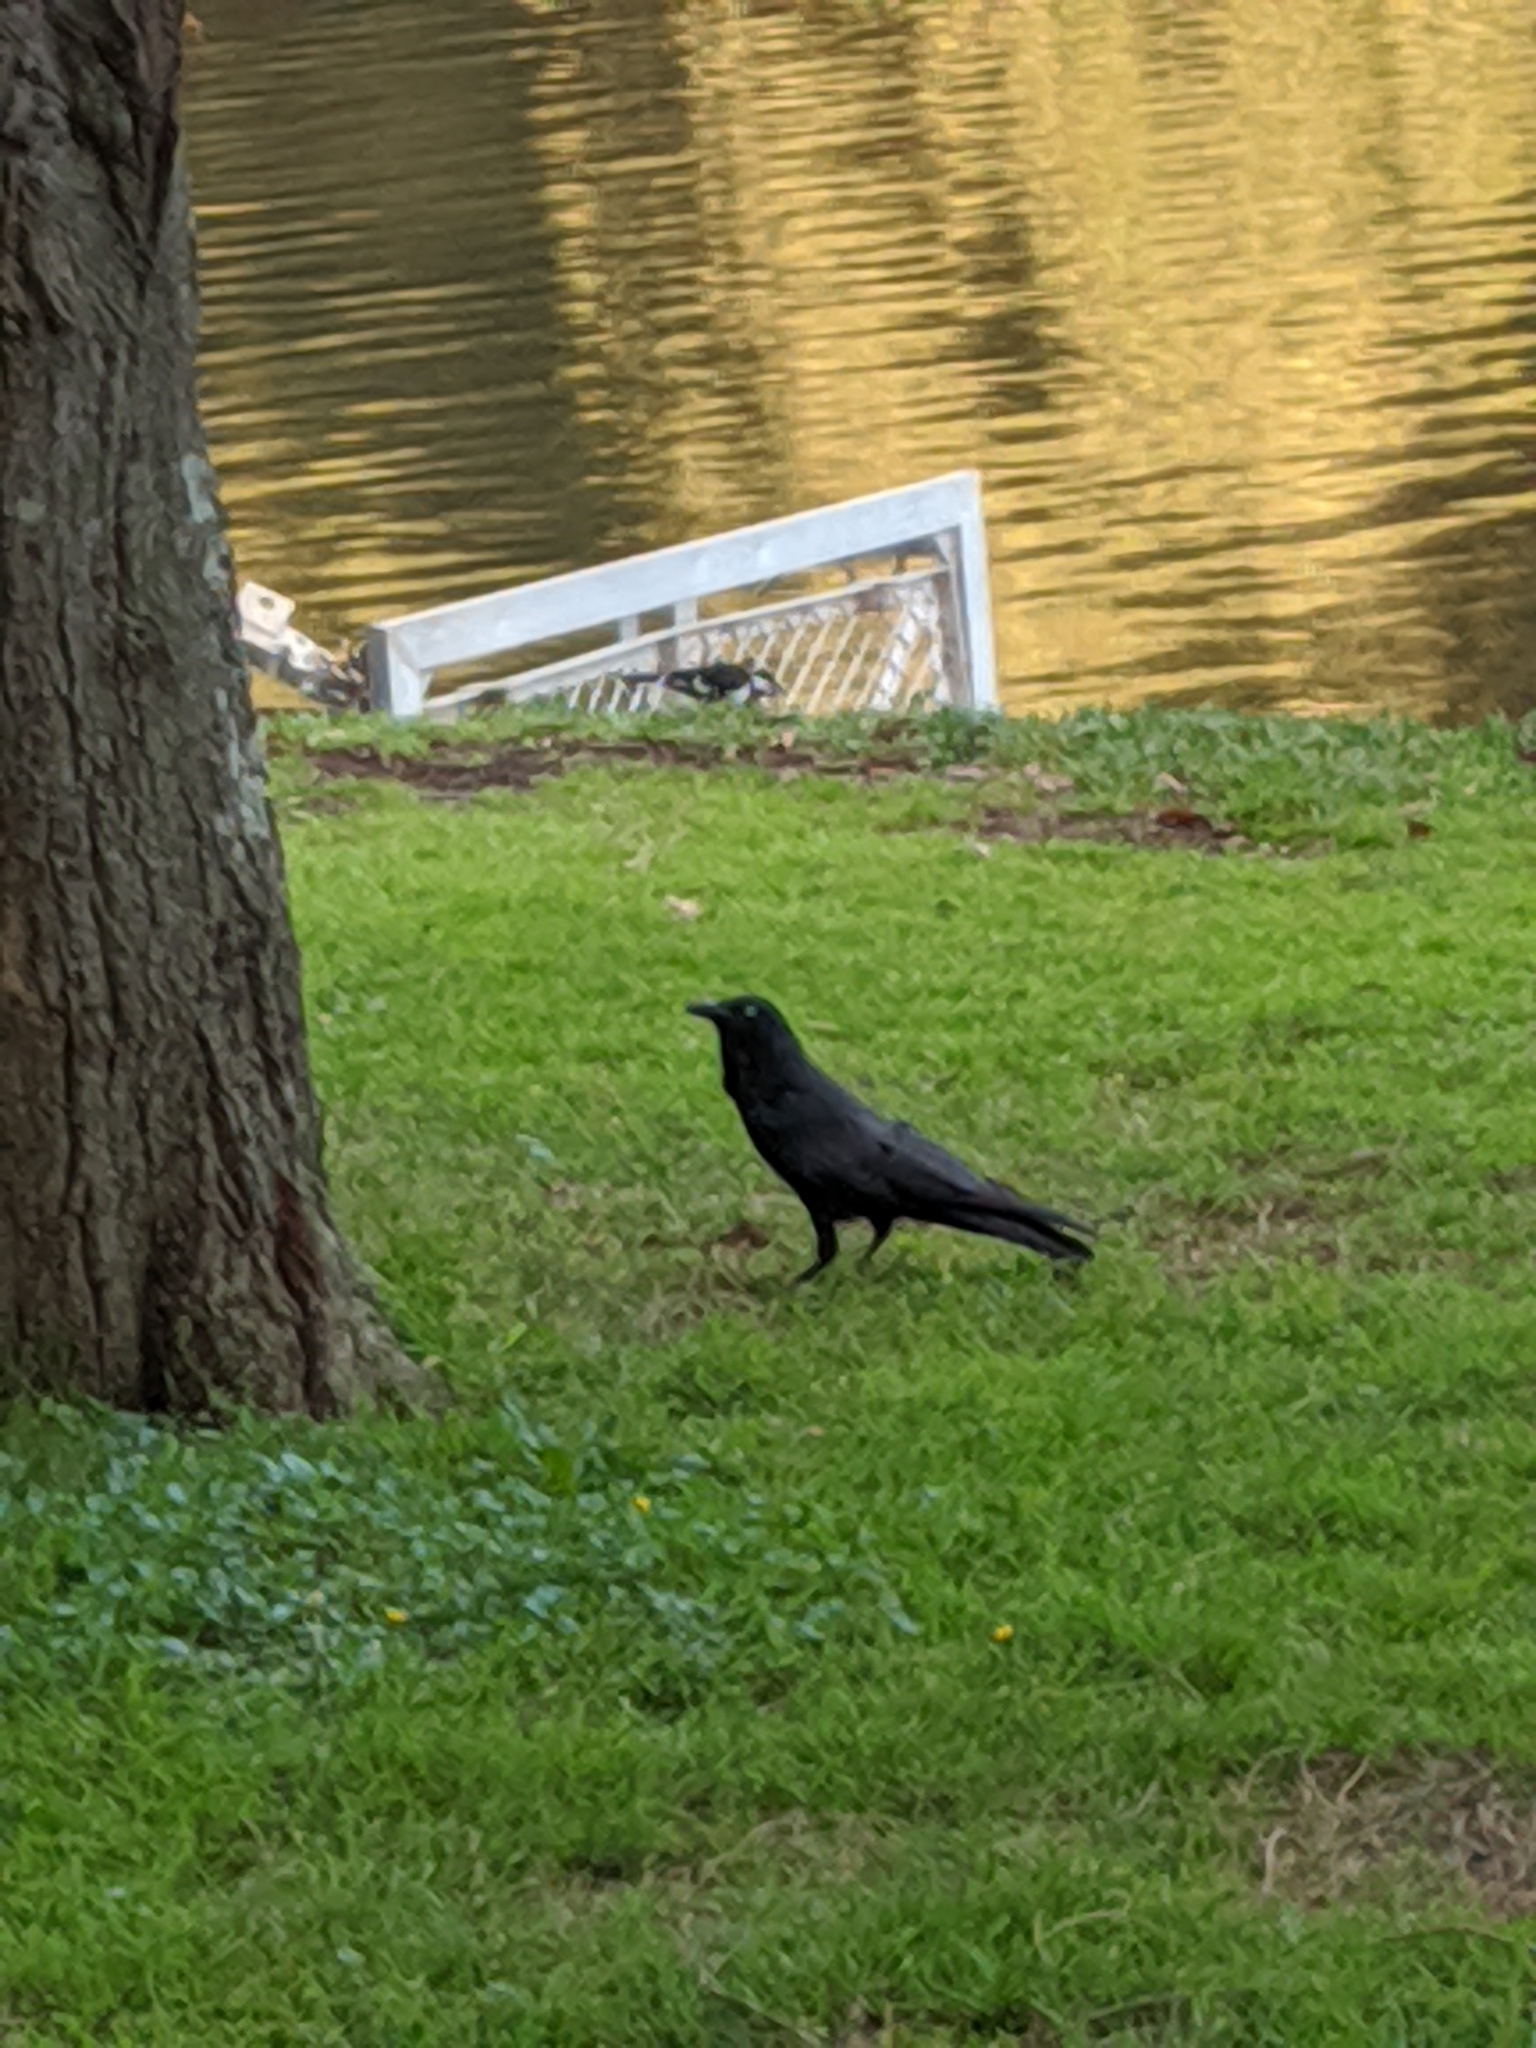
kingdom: Animalia
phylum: Chordata
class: Aves
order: Passeriformes
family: Corvidae
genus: Corvus
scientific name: Corvus coronoides
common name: Australian raven
